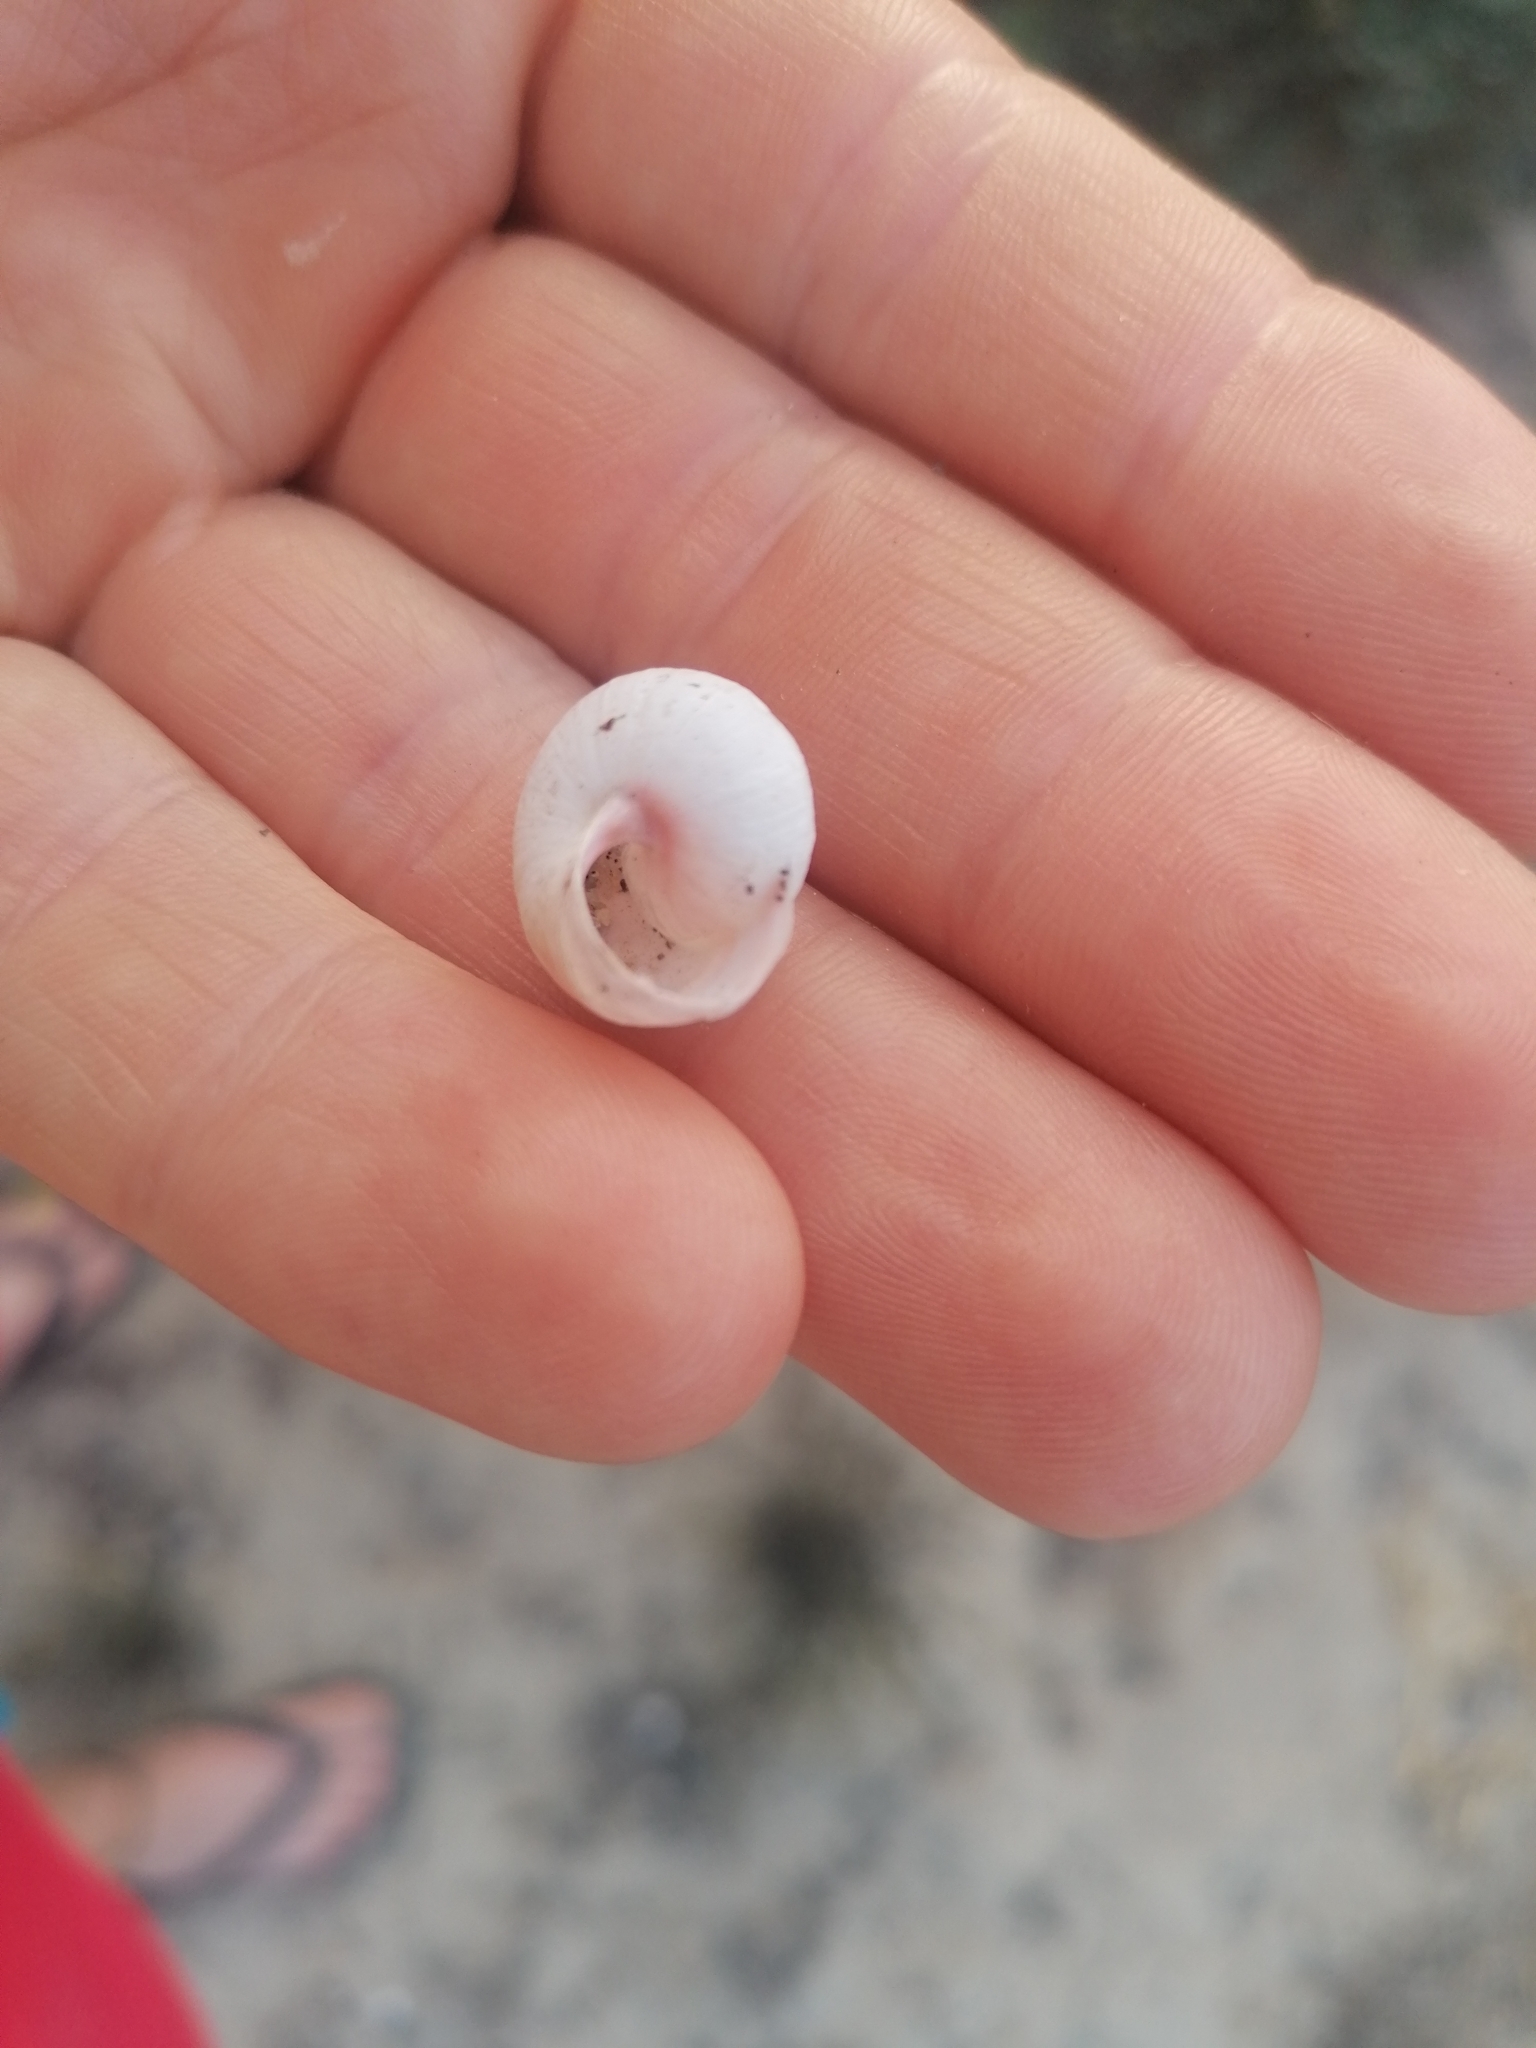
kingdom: Animalia
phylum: Mollusca
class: Gastropoda
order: Stylommatophora
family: Helicidae
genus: Theba
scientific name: Theba pisana
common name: White snail
